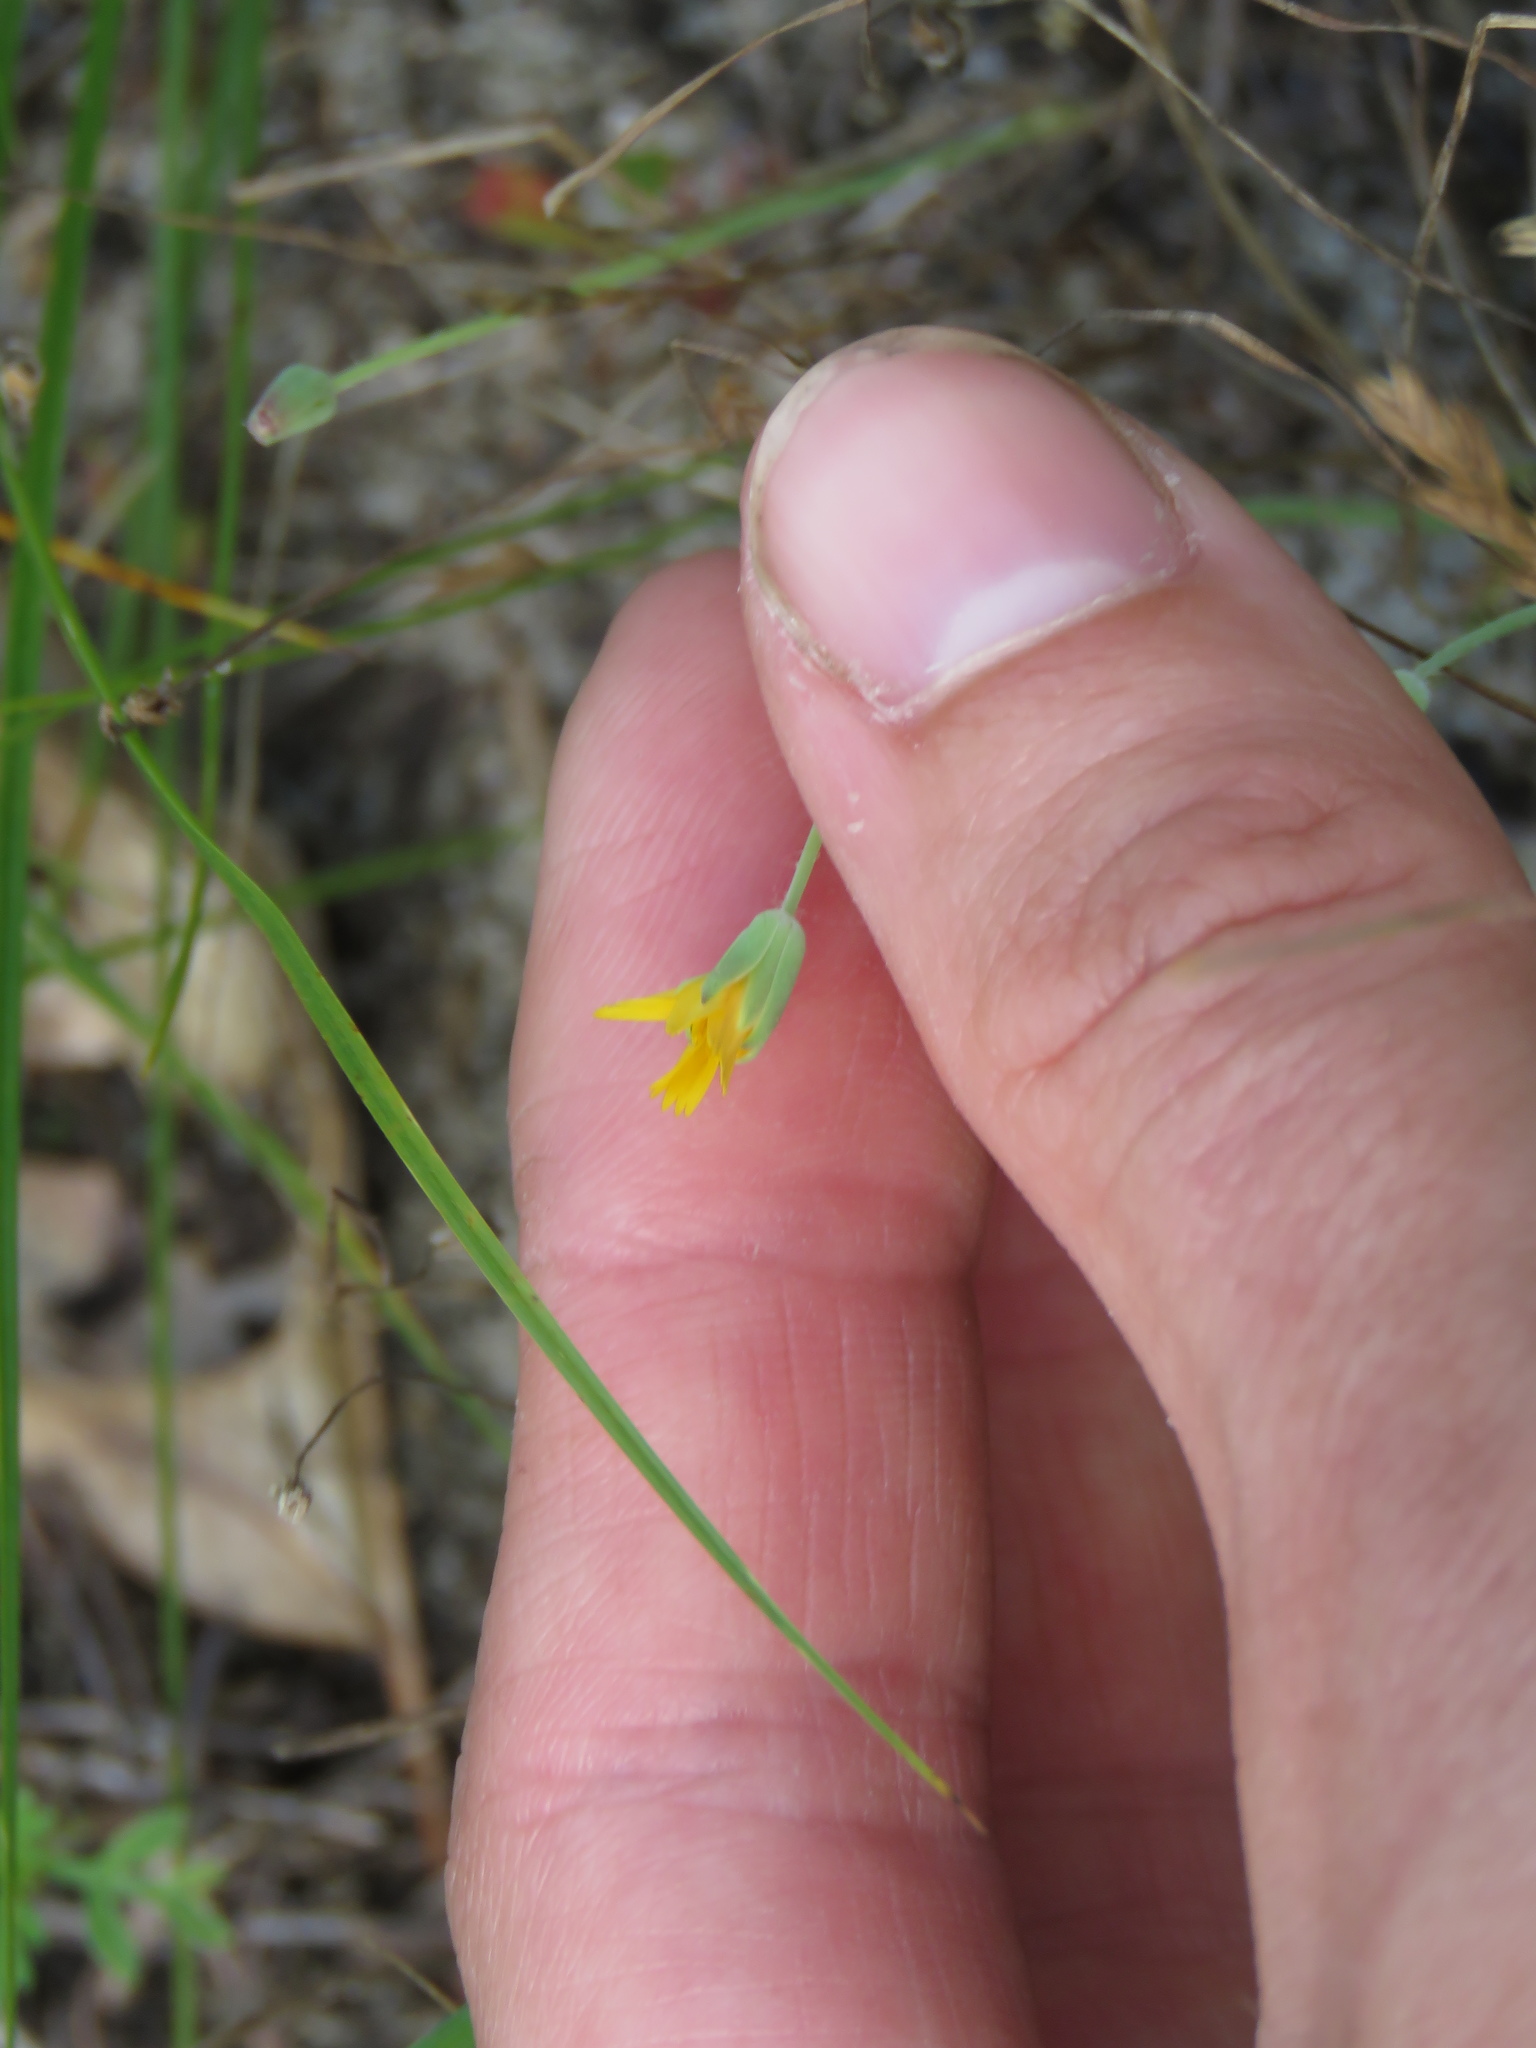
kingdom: Plantae
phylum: Tracheophyta
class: Magnoliopsida
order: Asterales
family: Asteraceae
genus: Krigia
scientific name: Krigia virginica
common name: Virginia dwarf-dandelion
